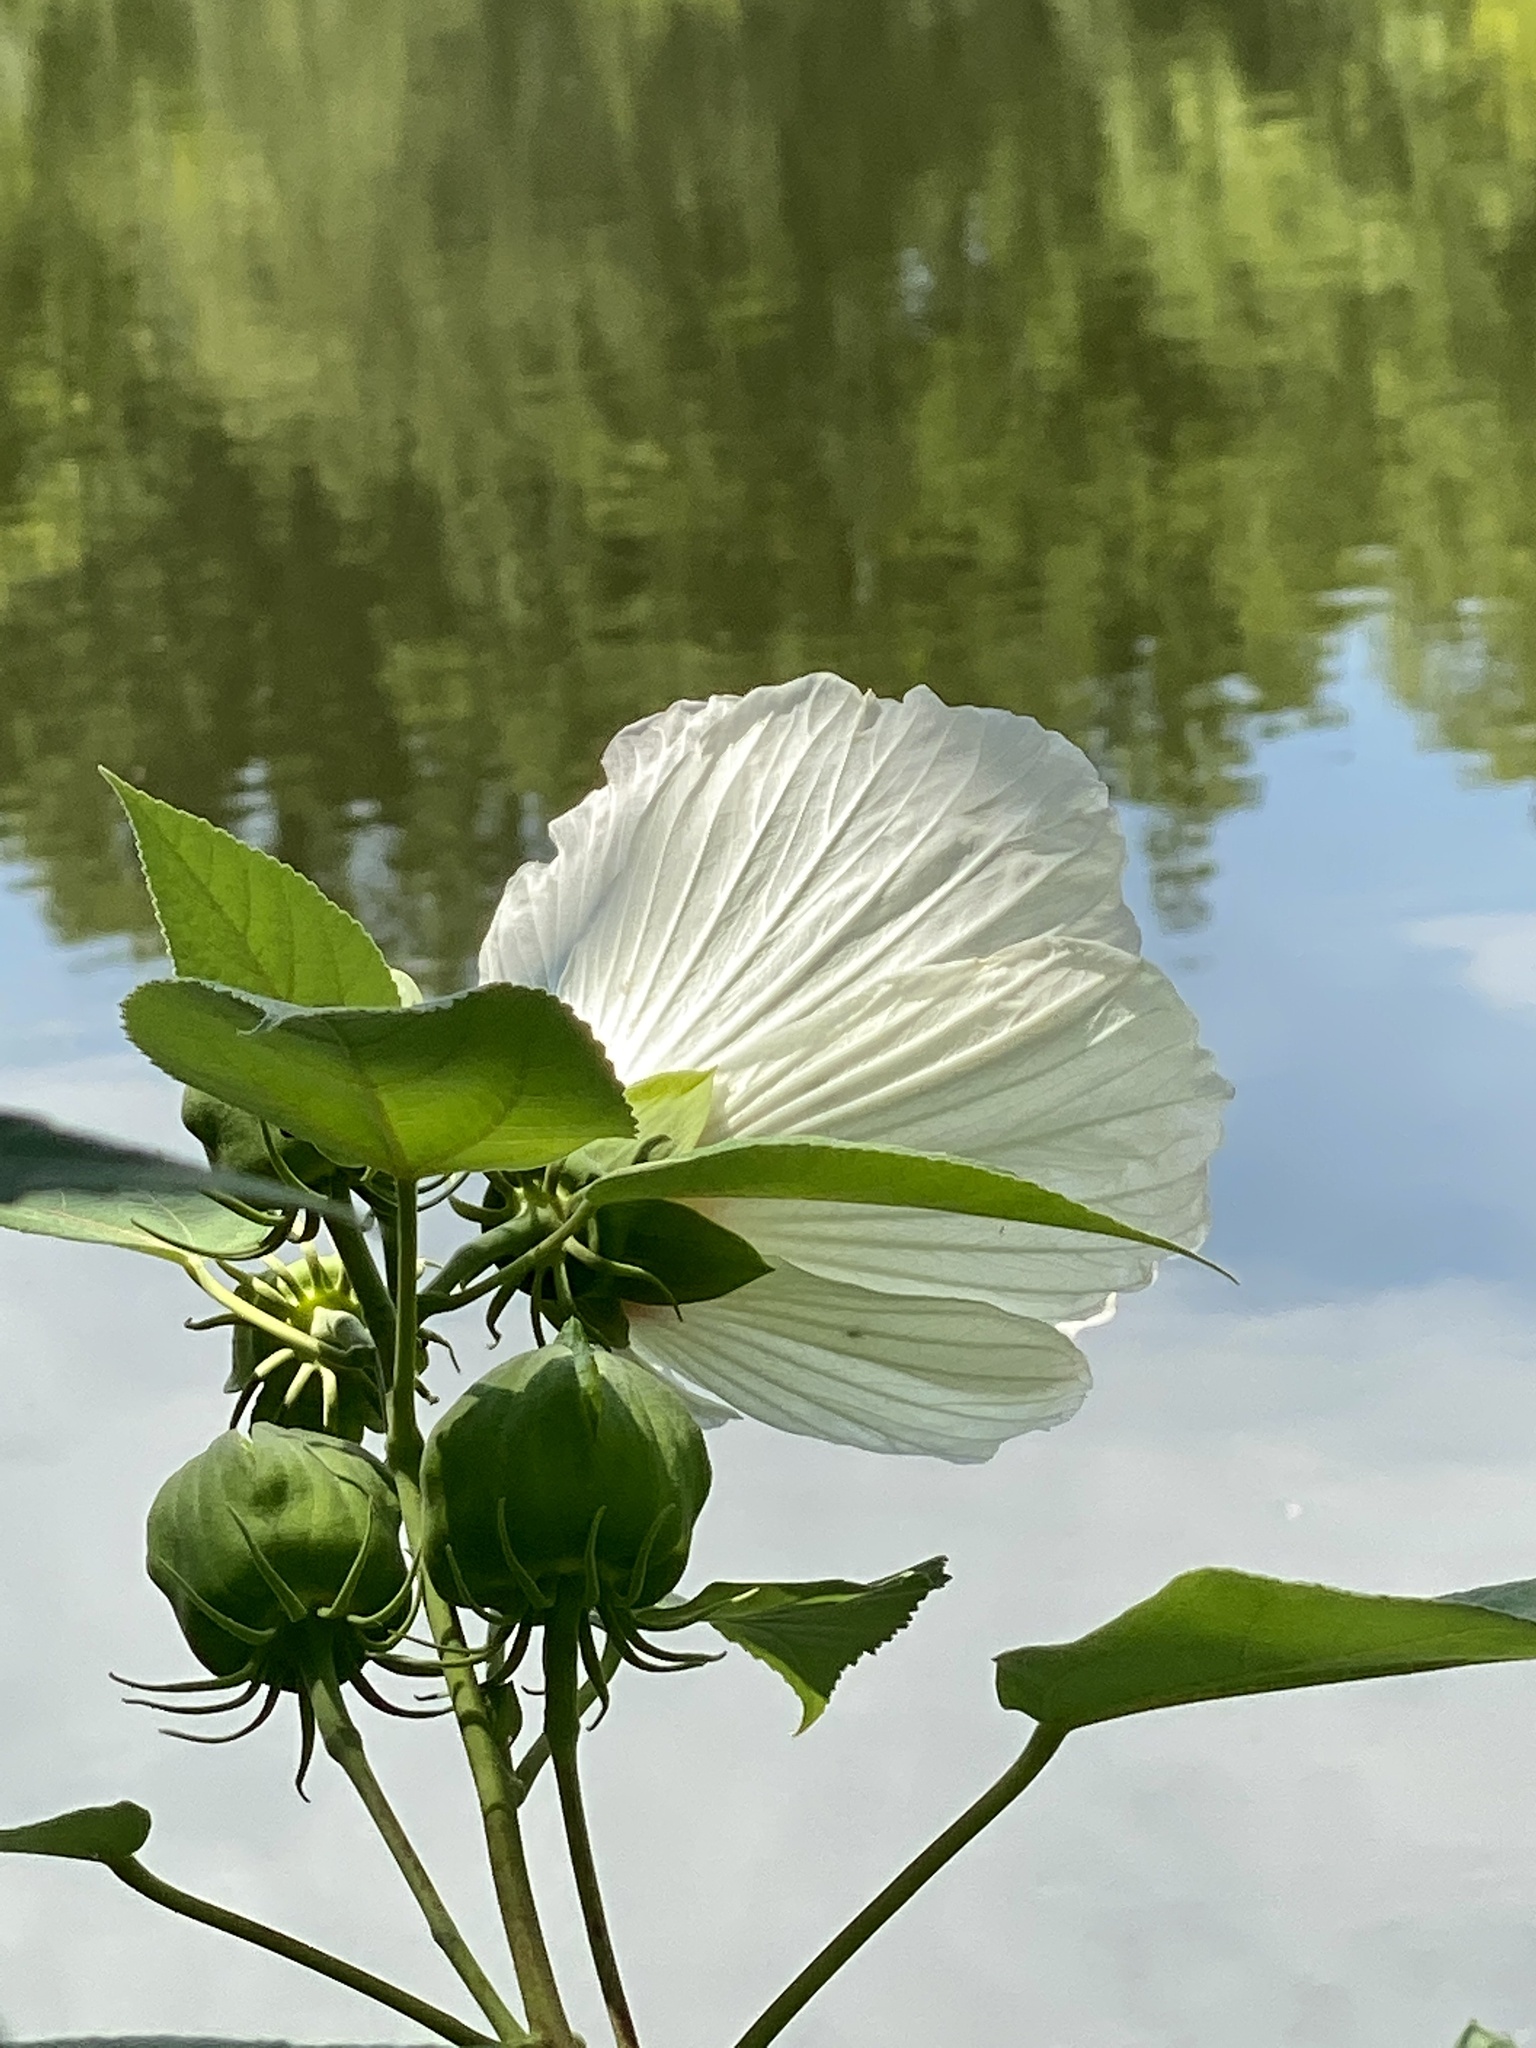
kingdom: Plantae
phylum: Tracheophyta
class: Magnoliopsida
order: Malvales
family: Malvaceae
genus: Hibiscus
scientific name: Hibiscus moscheutos
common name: Common rose-mallow
